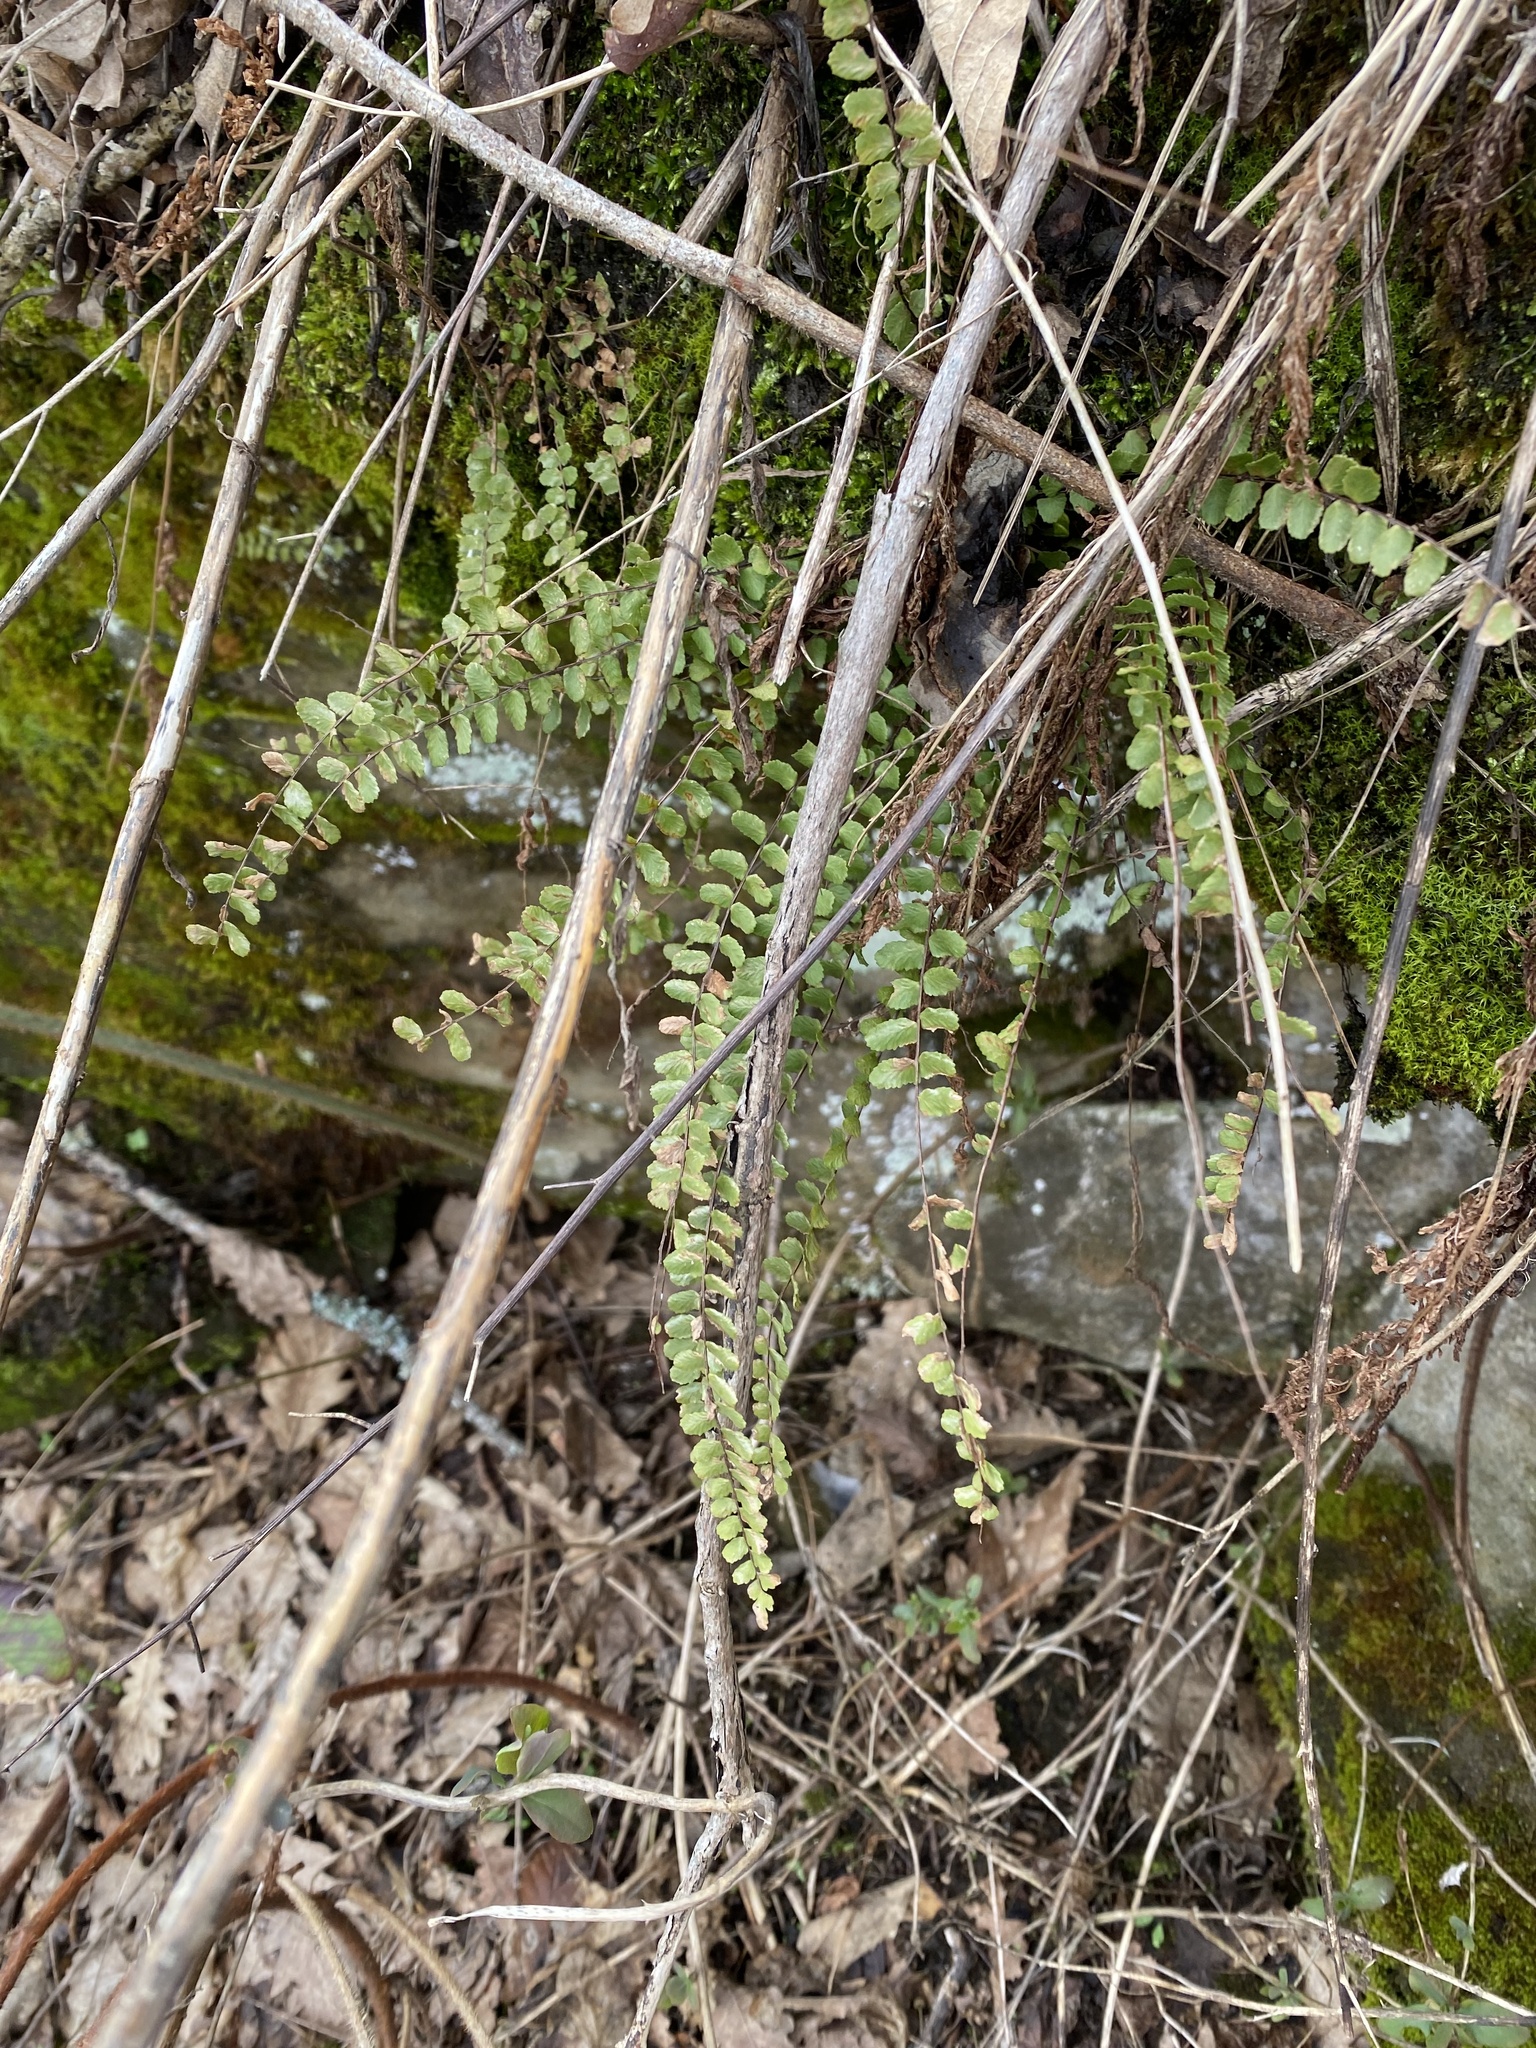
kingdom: Plantae
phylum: Tracheophyta
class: Polypodiopsida
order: Polypodiales
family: Aspleniaceae
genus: Asplenium
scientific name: Asplenium trichomanes
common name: Maidenhair spleenwort
